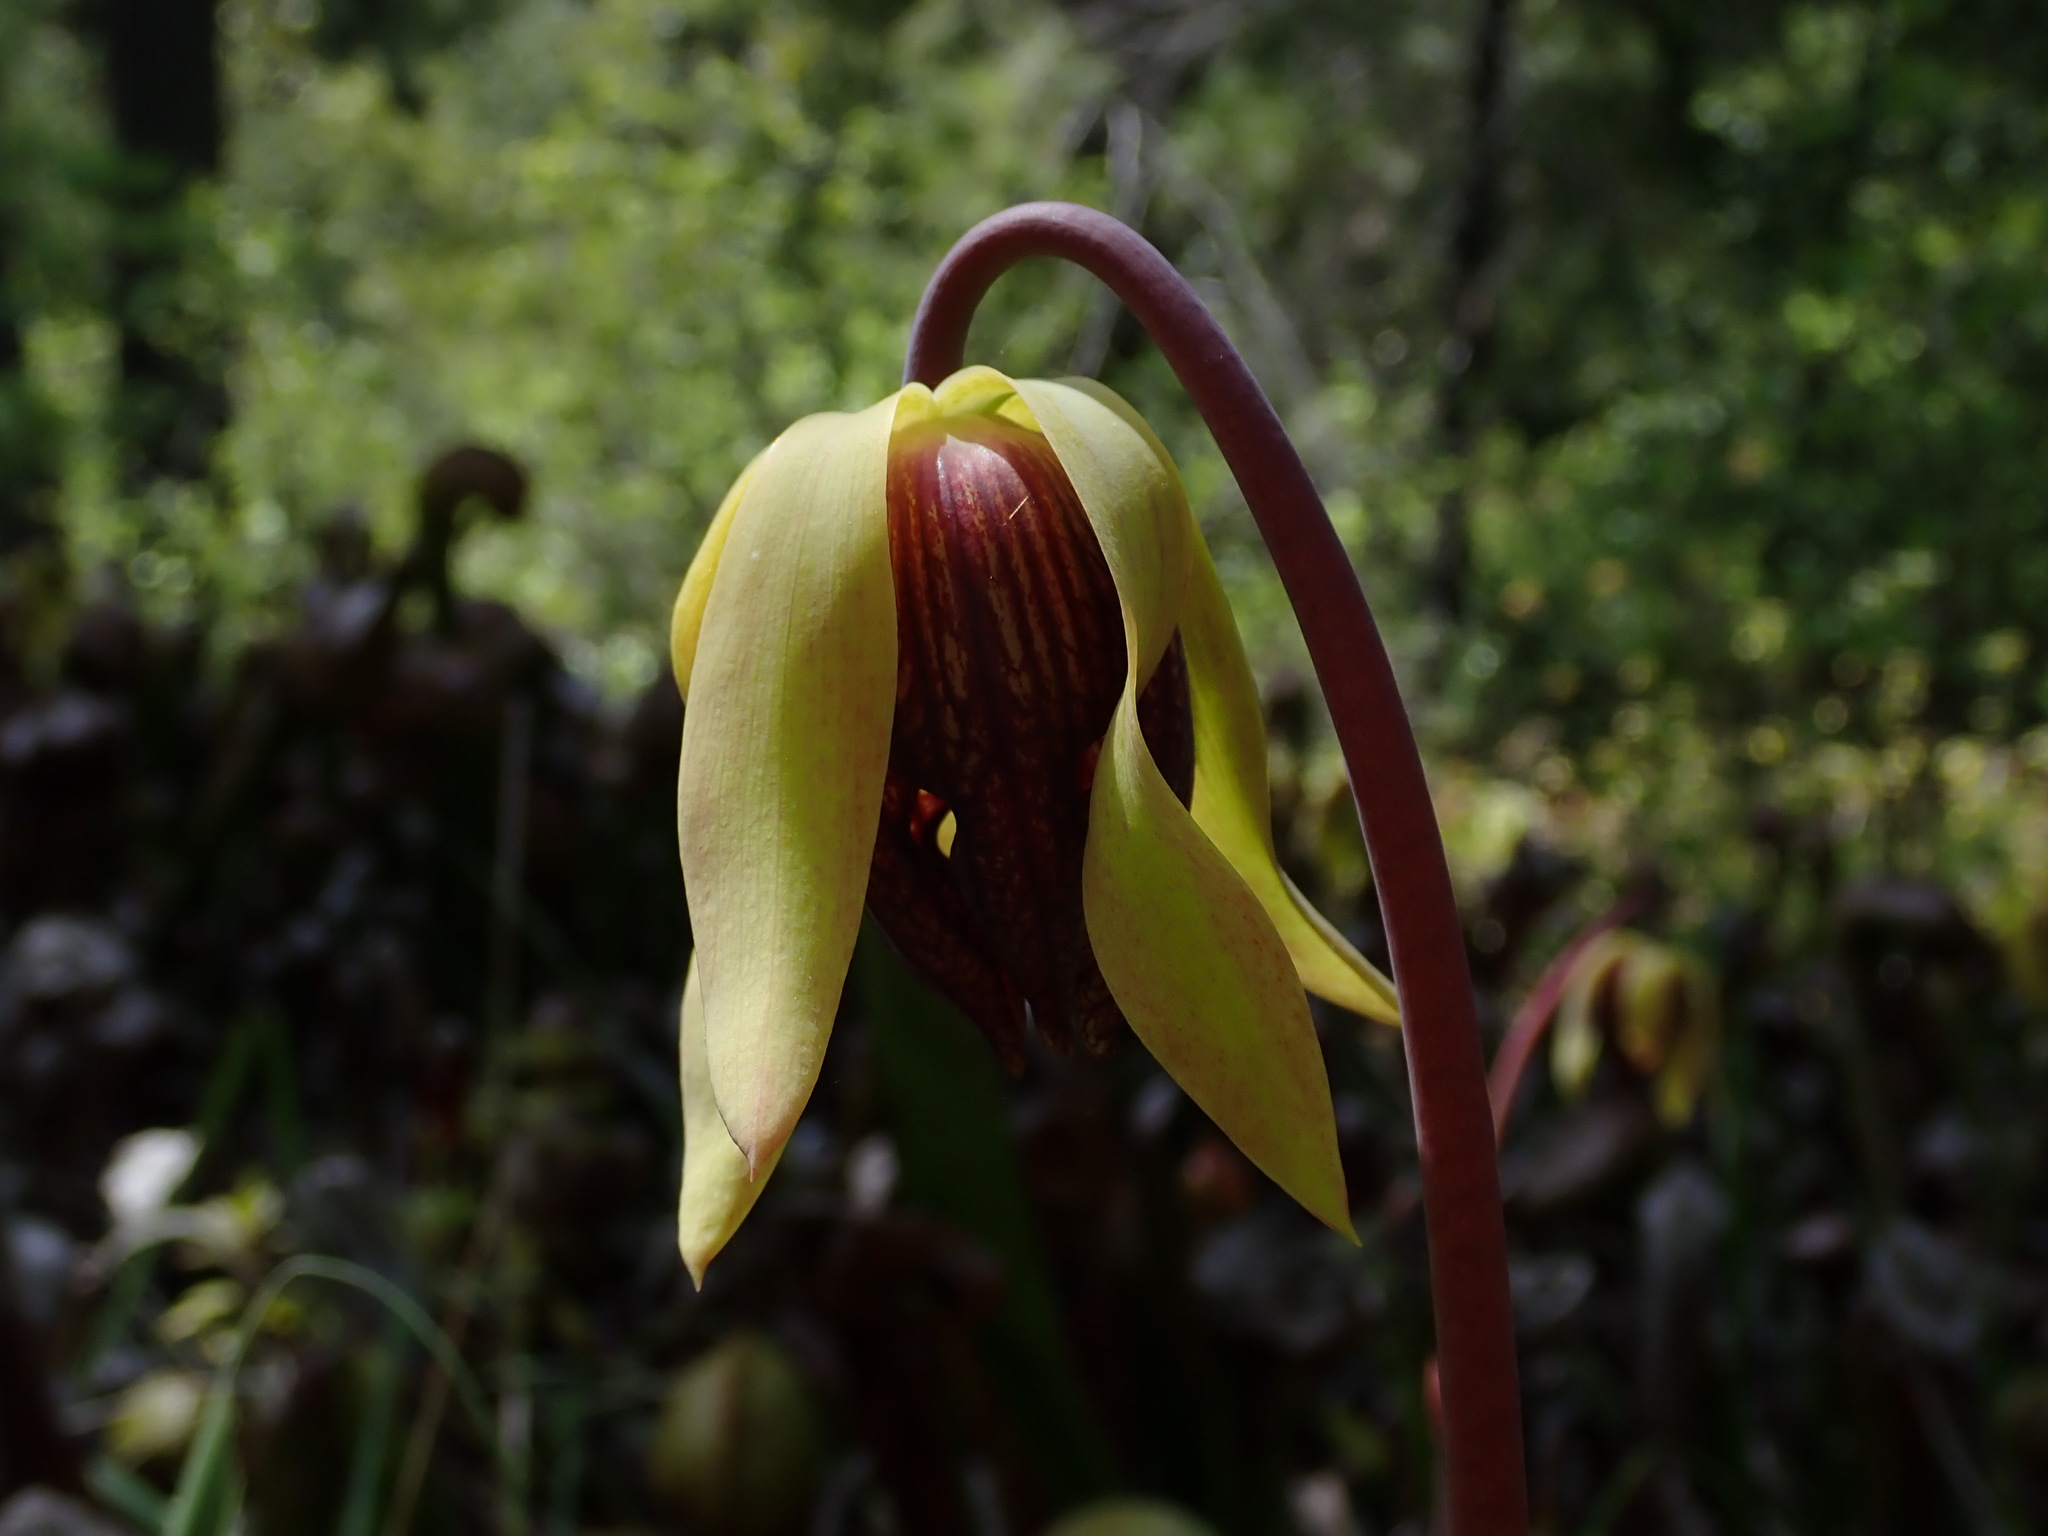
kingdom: Plantae
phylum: Tracheophyta
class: Magnoliopsida
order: Ericales
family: Sarraceniaceae
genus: Darlingtonia
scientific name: Darlingtonia californica
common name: California pitcher plant
